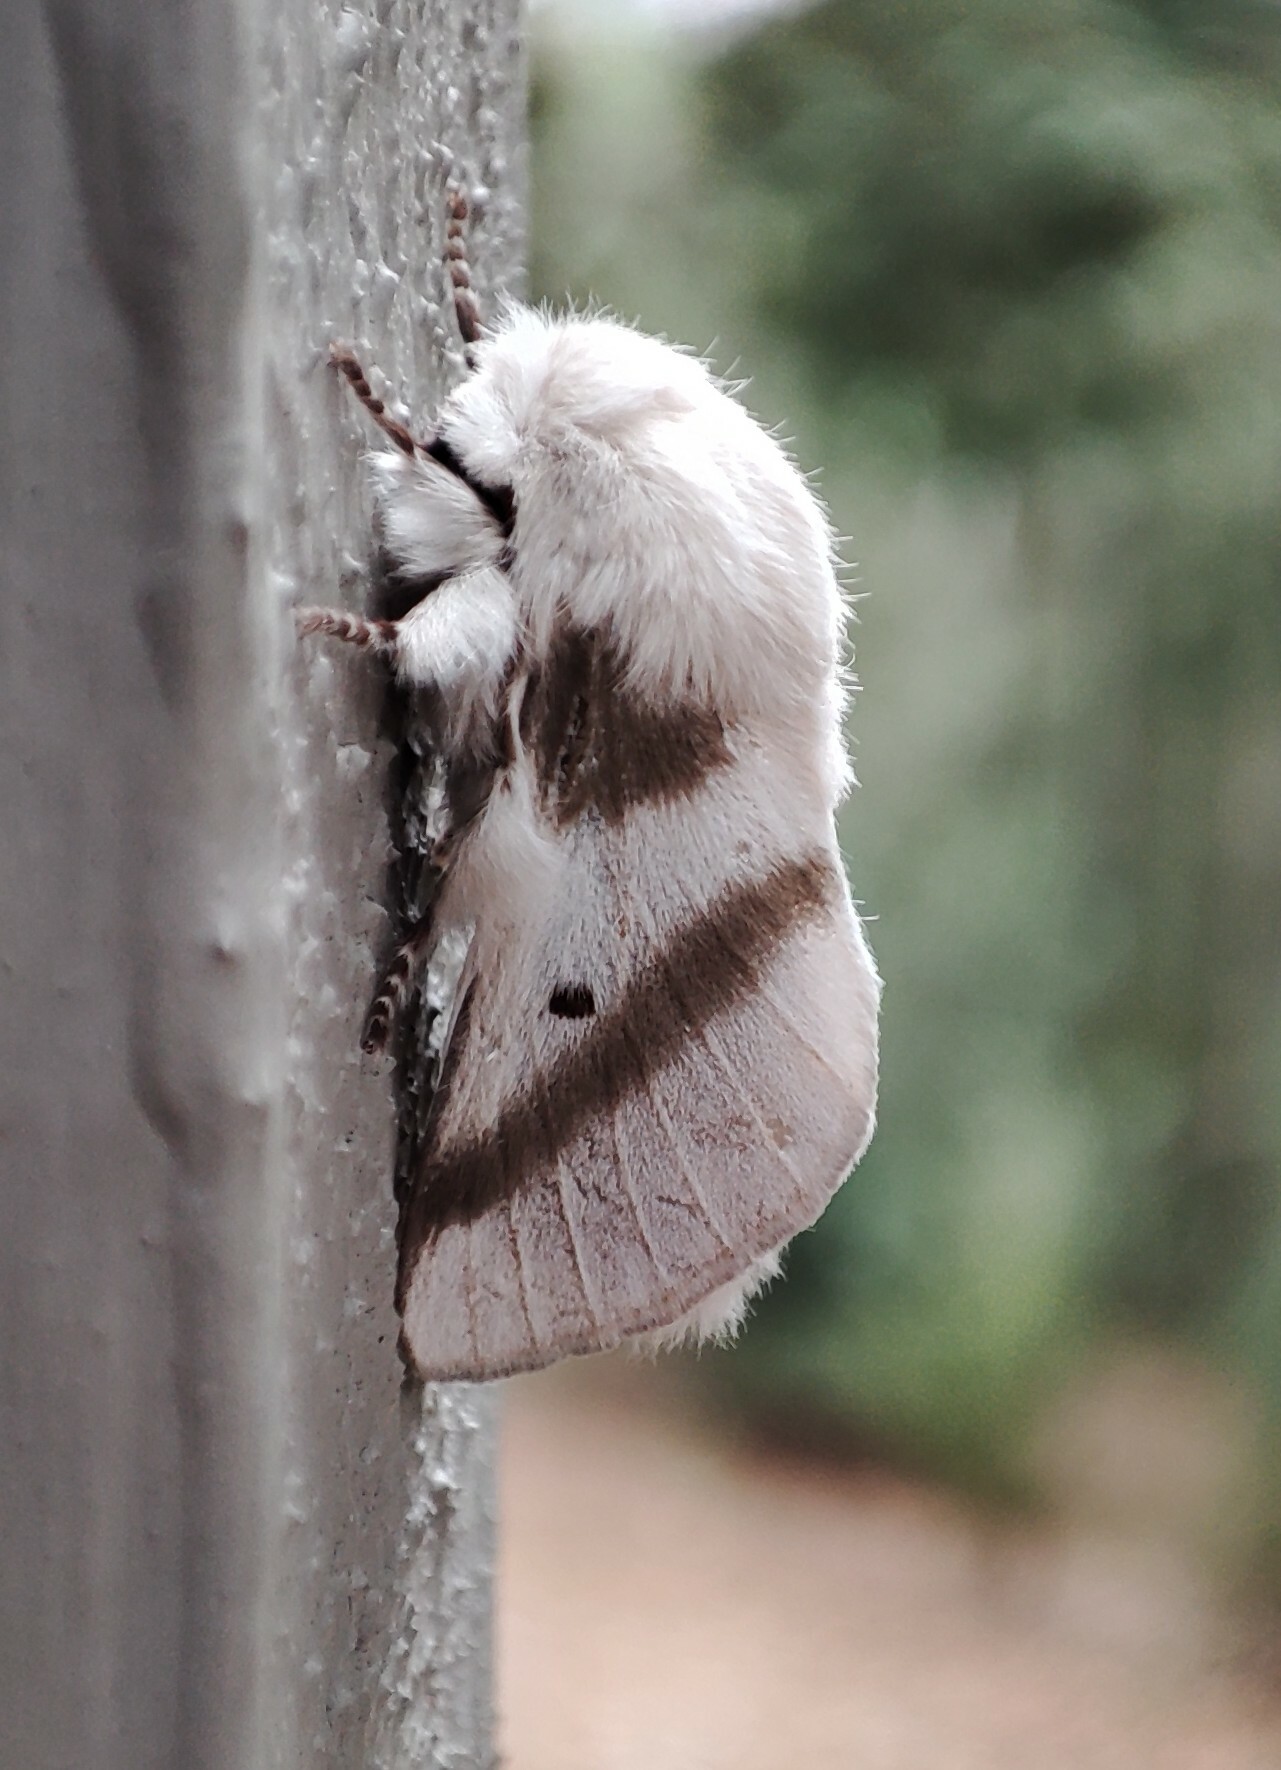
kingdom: Animalia
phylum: Arthropoda
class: Insecta
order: Lepidoptera
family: Lasiocampidae
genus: Bombycomorpha
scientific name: Bombycomorpha bifascia
